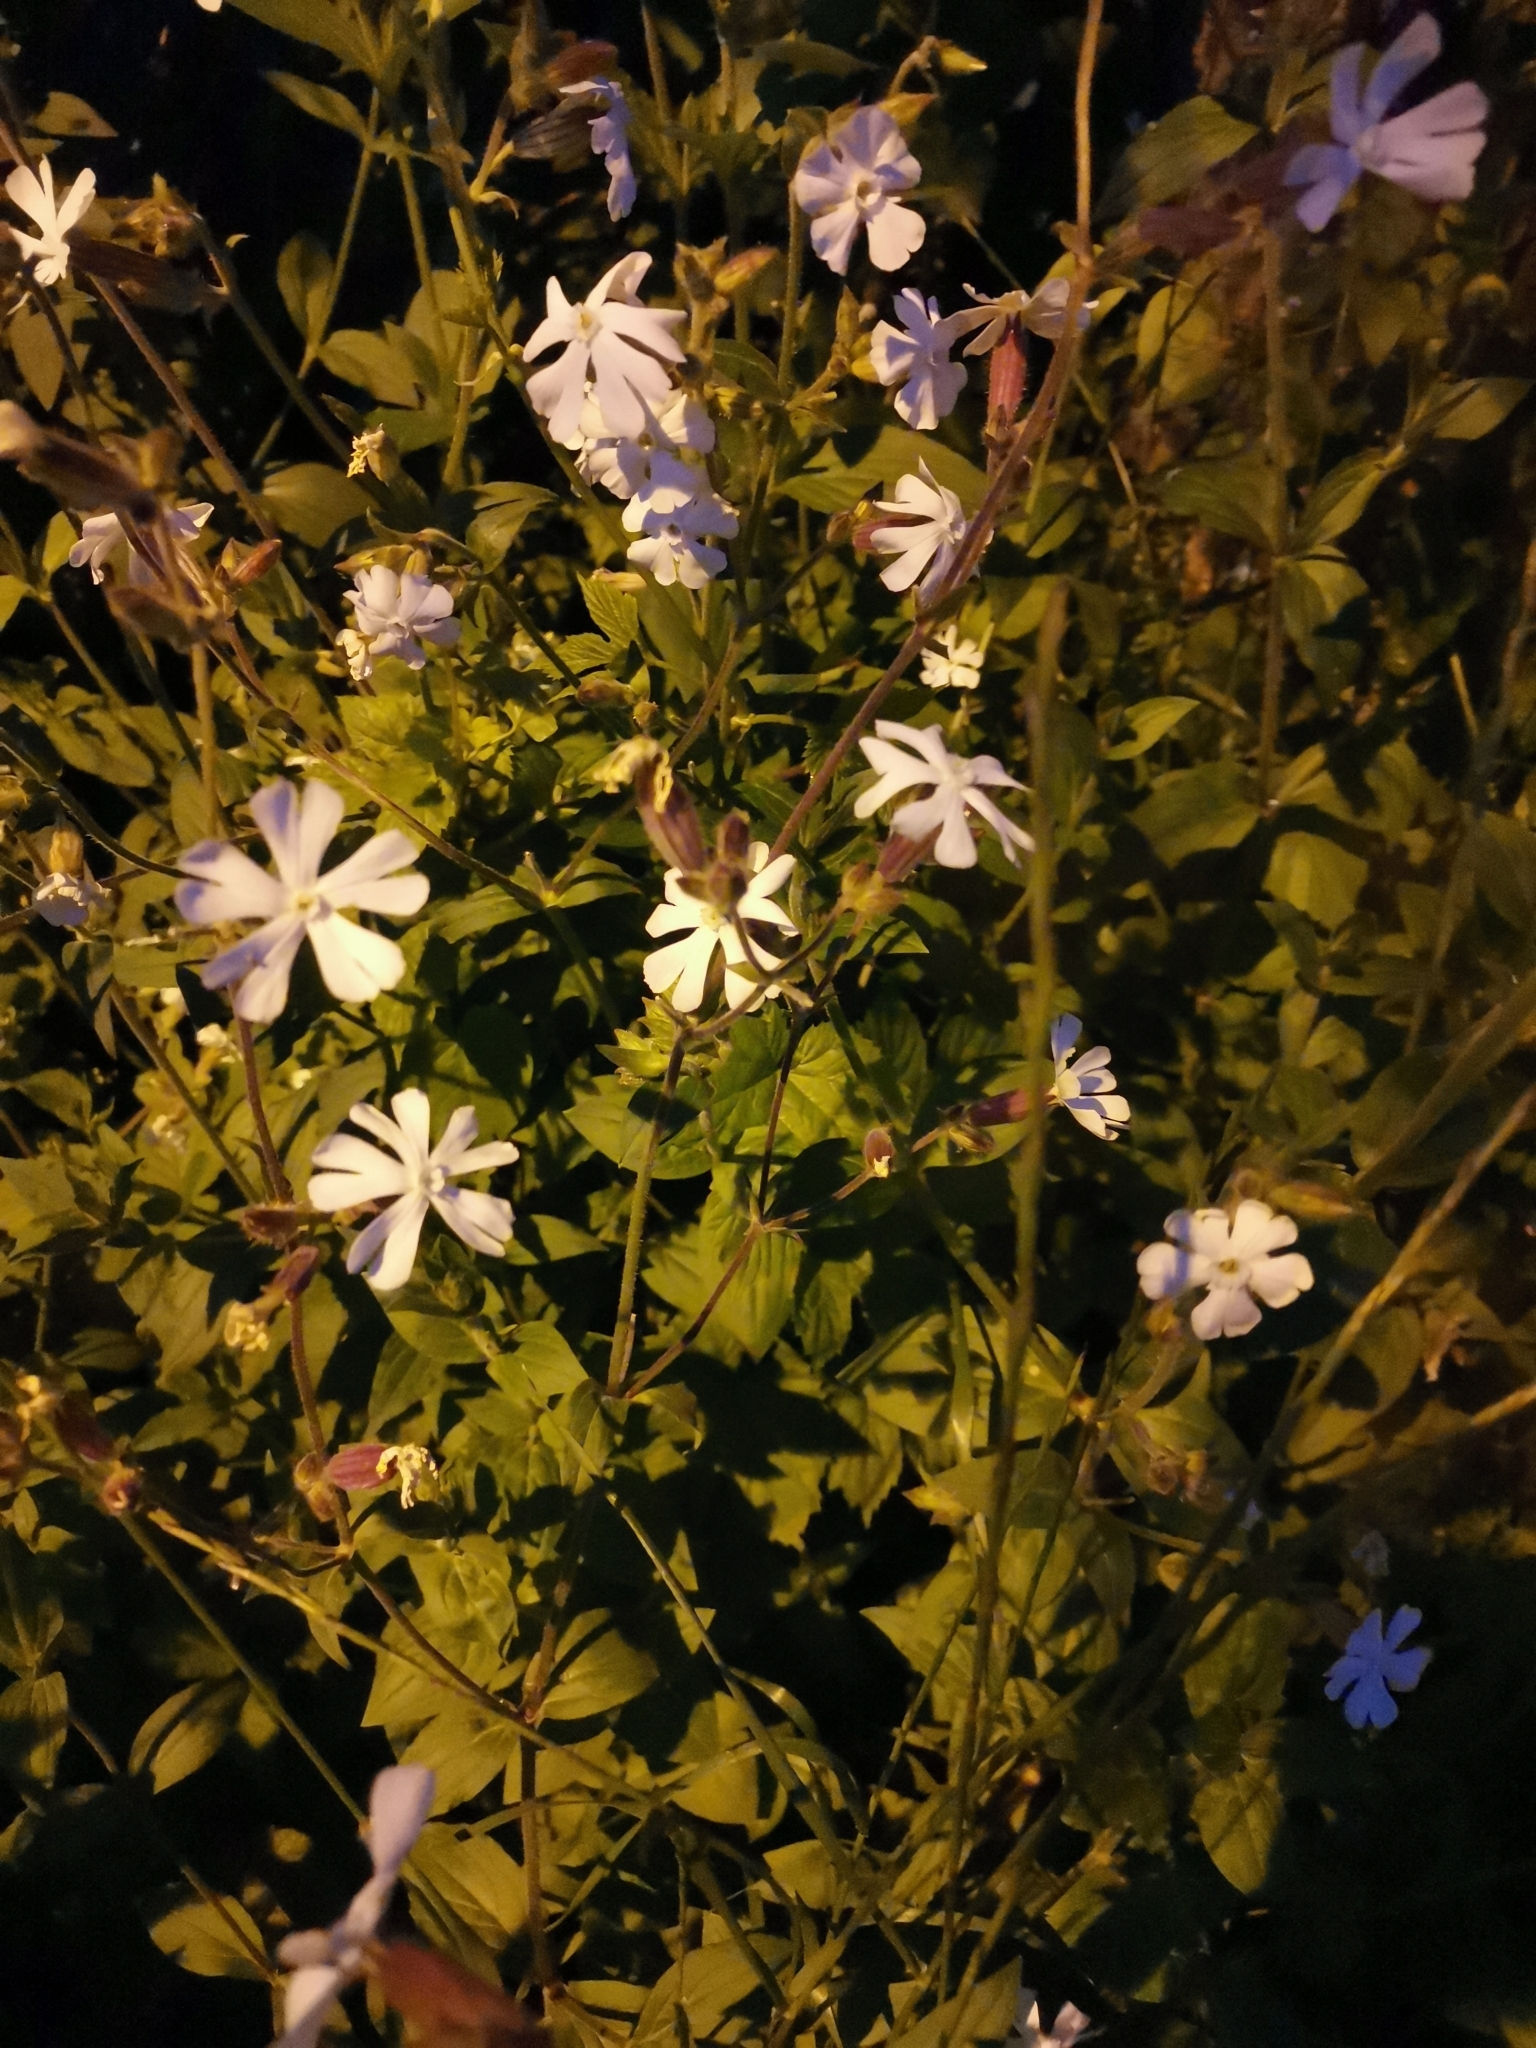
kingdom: Plantae
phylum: Tracheophyta
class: Magnoliopsida
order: Caryophyllales
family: Caryophyllaceae
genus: Silene
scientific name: Silene latifolia
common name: White campion
